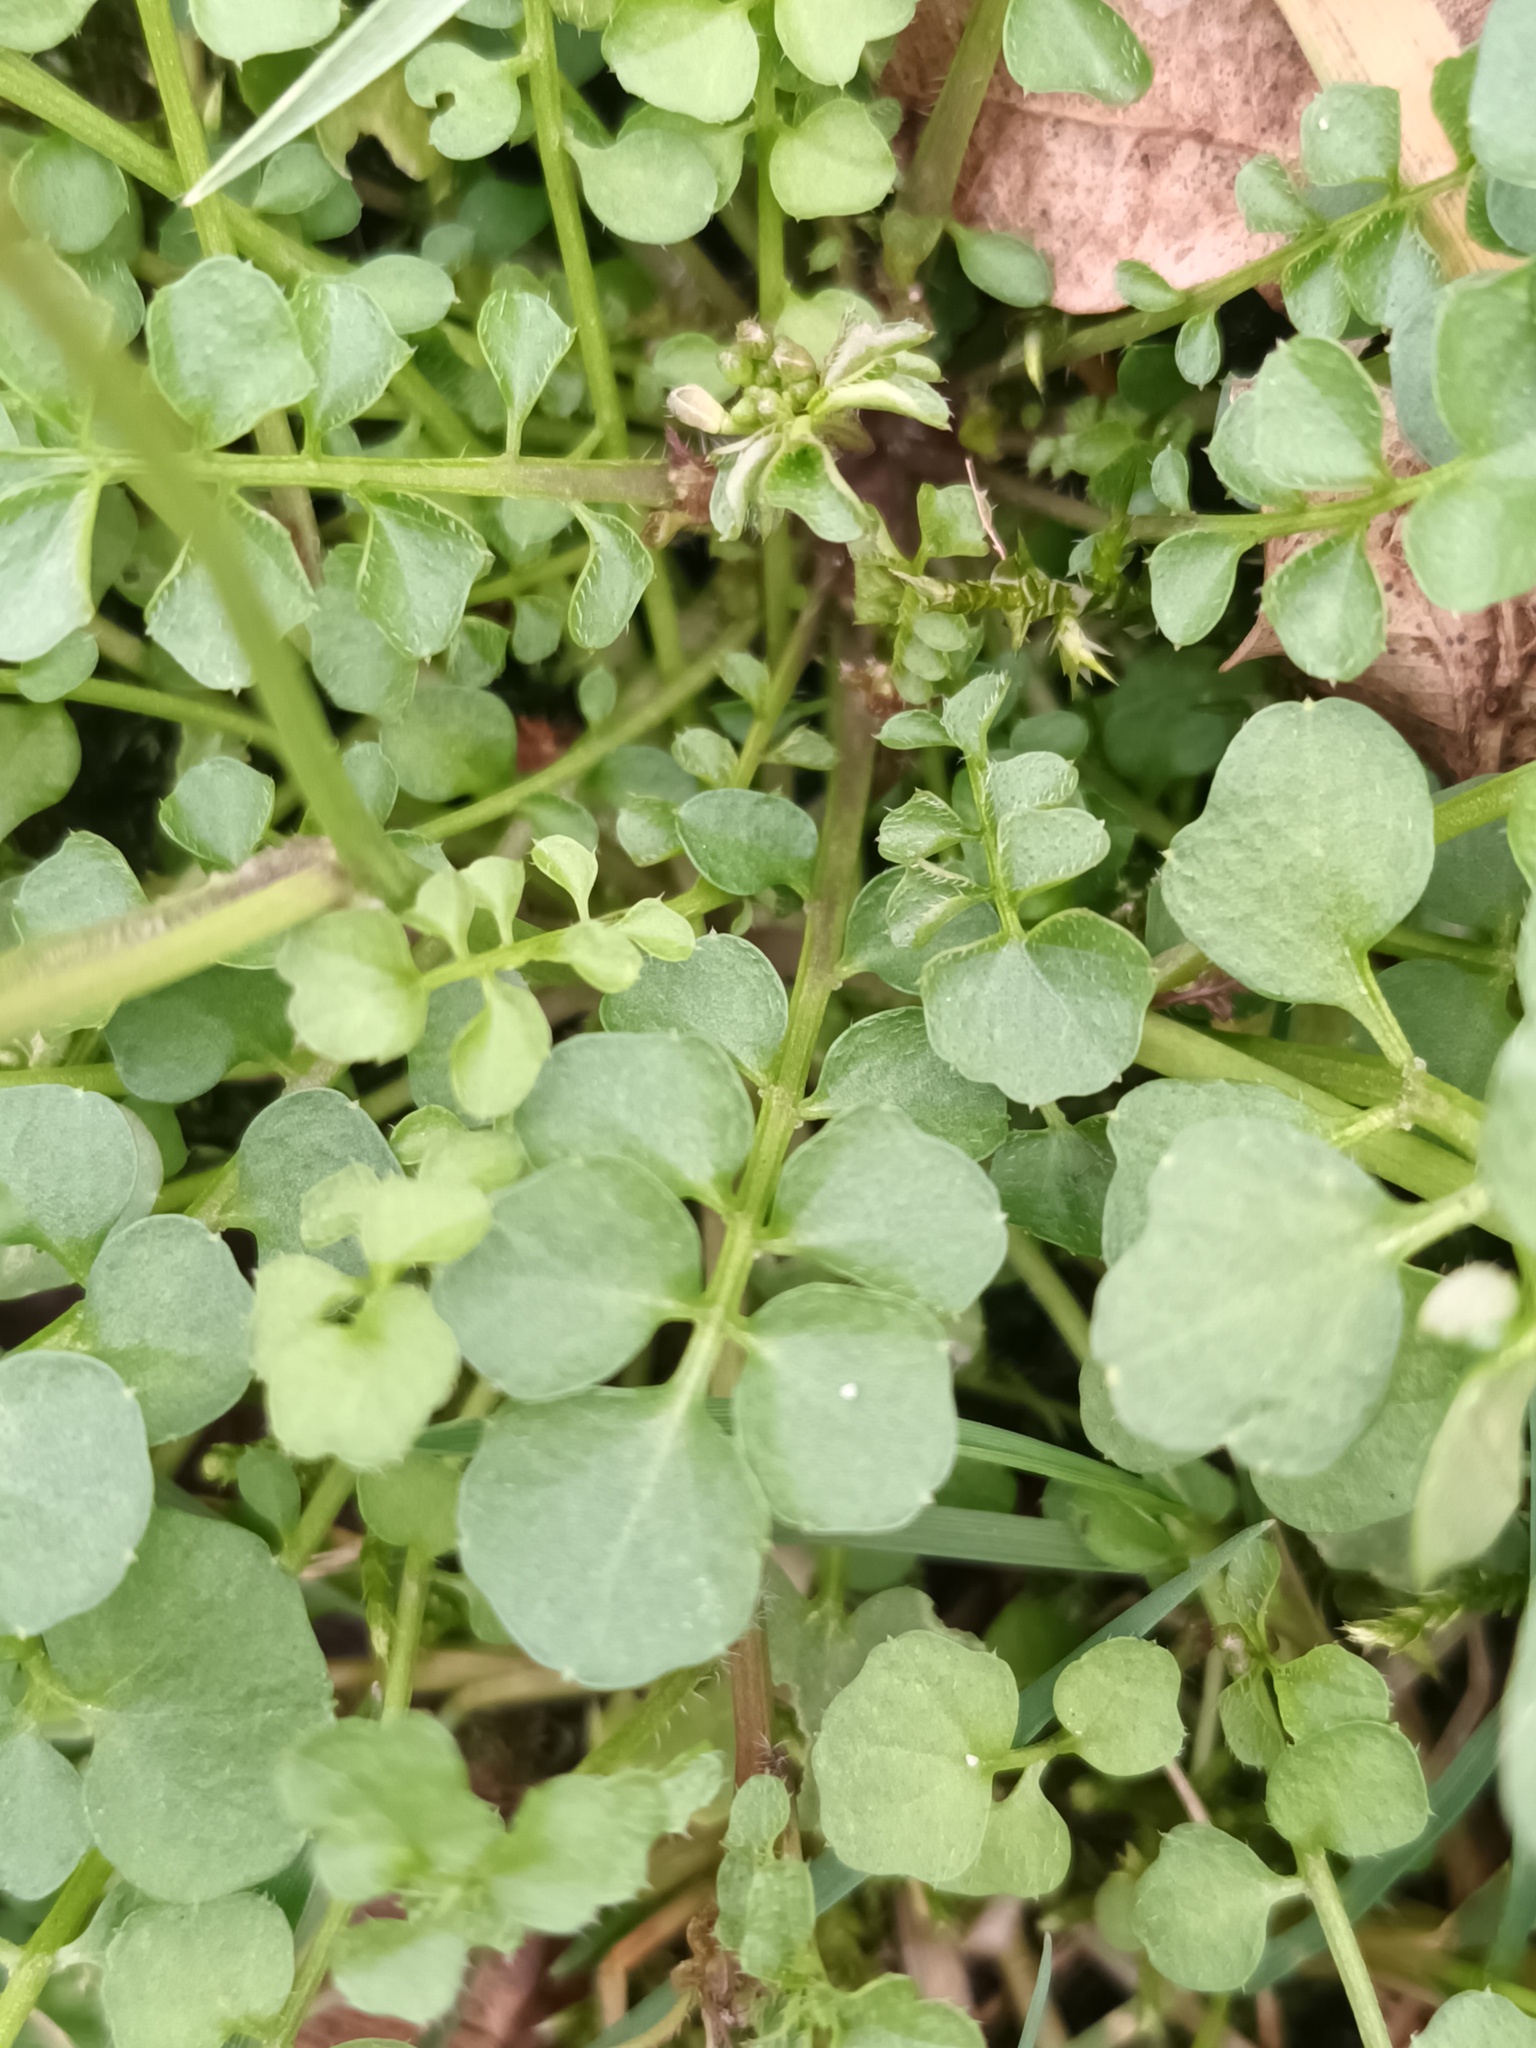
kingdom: Plantae
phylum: Tracheophyta
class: Magnoliopsida
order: Brassicales
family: Brassicaceae
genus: Cardamine
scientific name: Cardamine hirsuta
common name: Hairy bittercress
